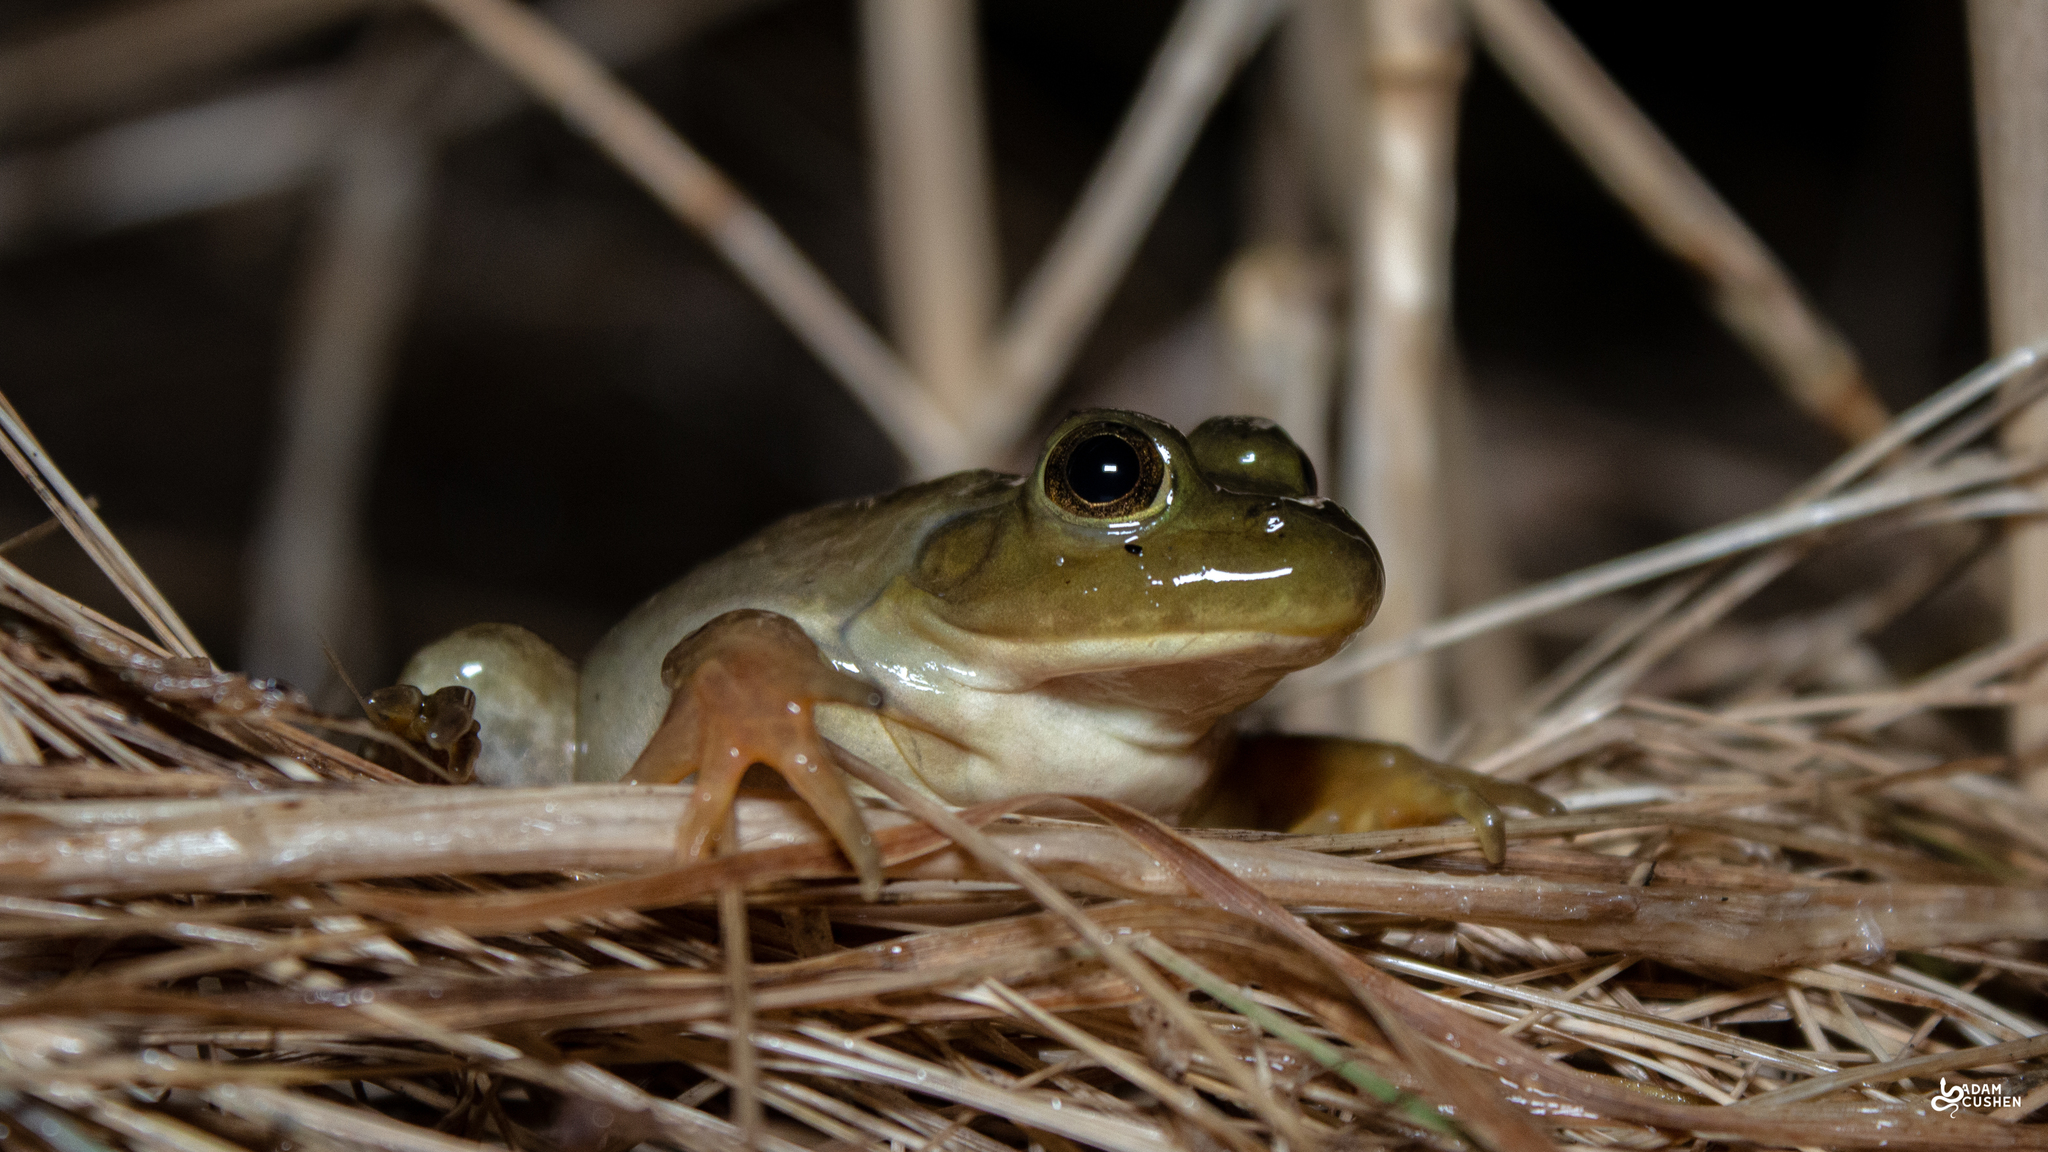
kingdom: Animalia
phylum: Chordata
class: Amphibia
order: Anura
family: Ranidae
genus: Lithobates
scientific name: Lithobates catesbeianus
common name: American bullfrog
